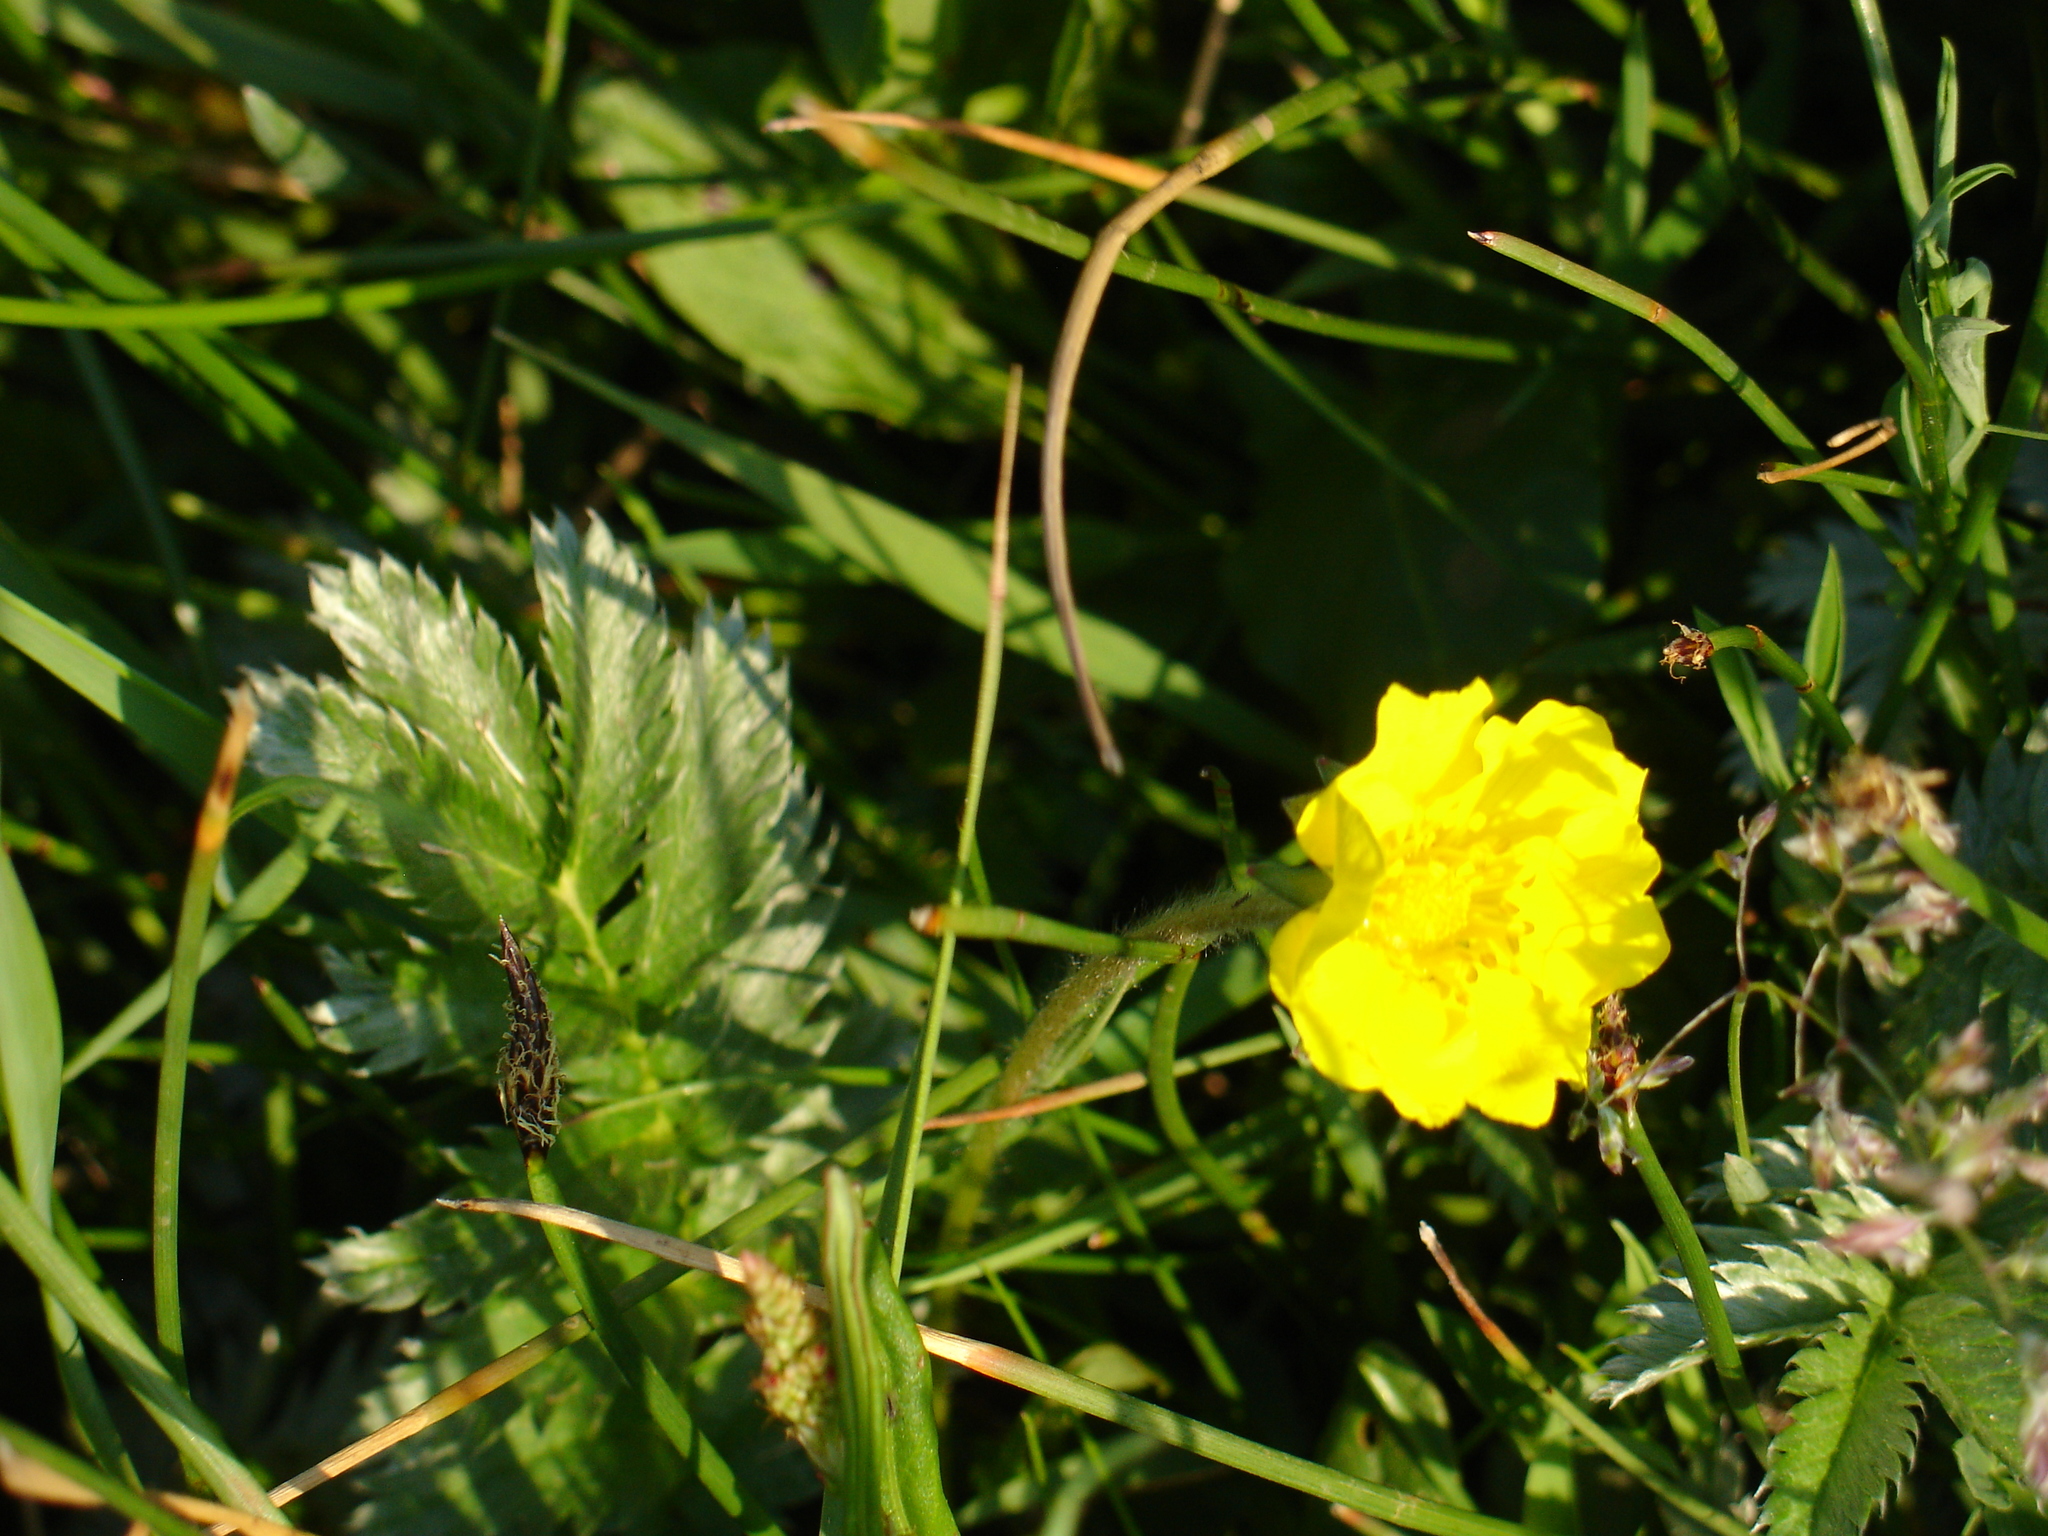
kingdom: Plantae
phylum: Tracheophyta
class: Magnoliopsida
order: Rosales
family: Rosaceae
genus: Argentina
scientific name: Argentina anserina
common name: Common silverweed
